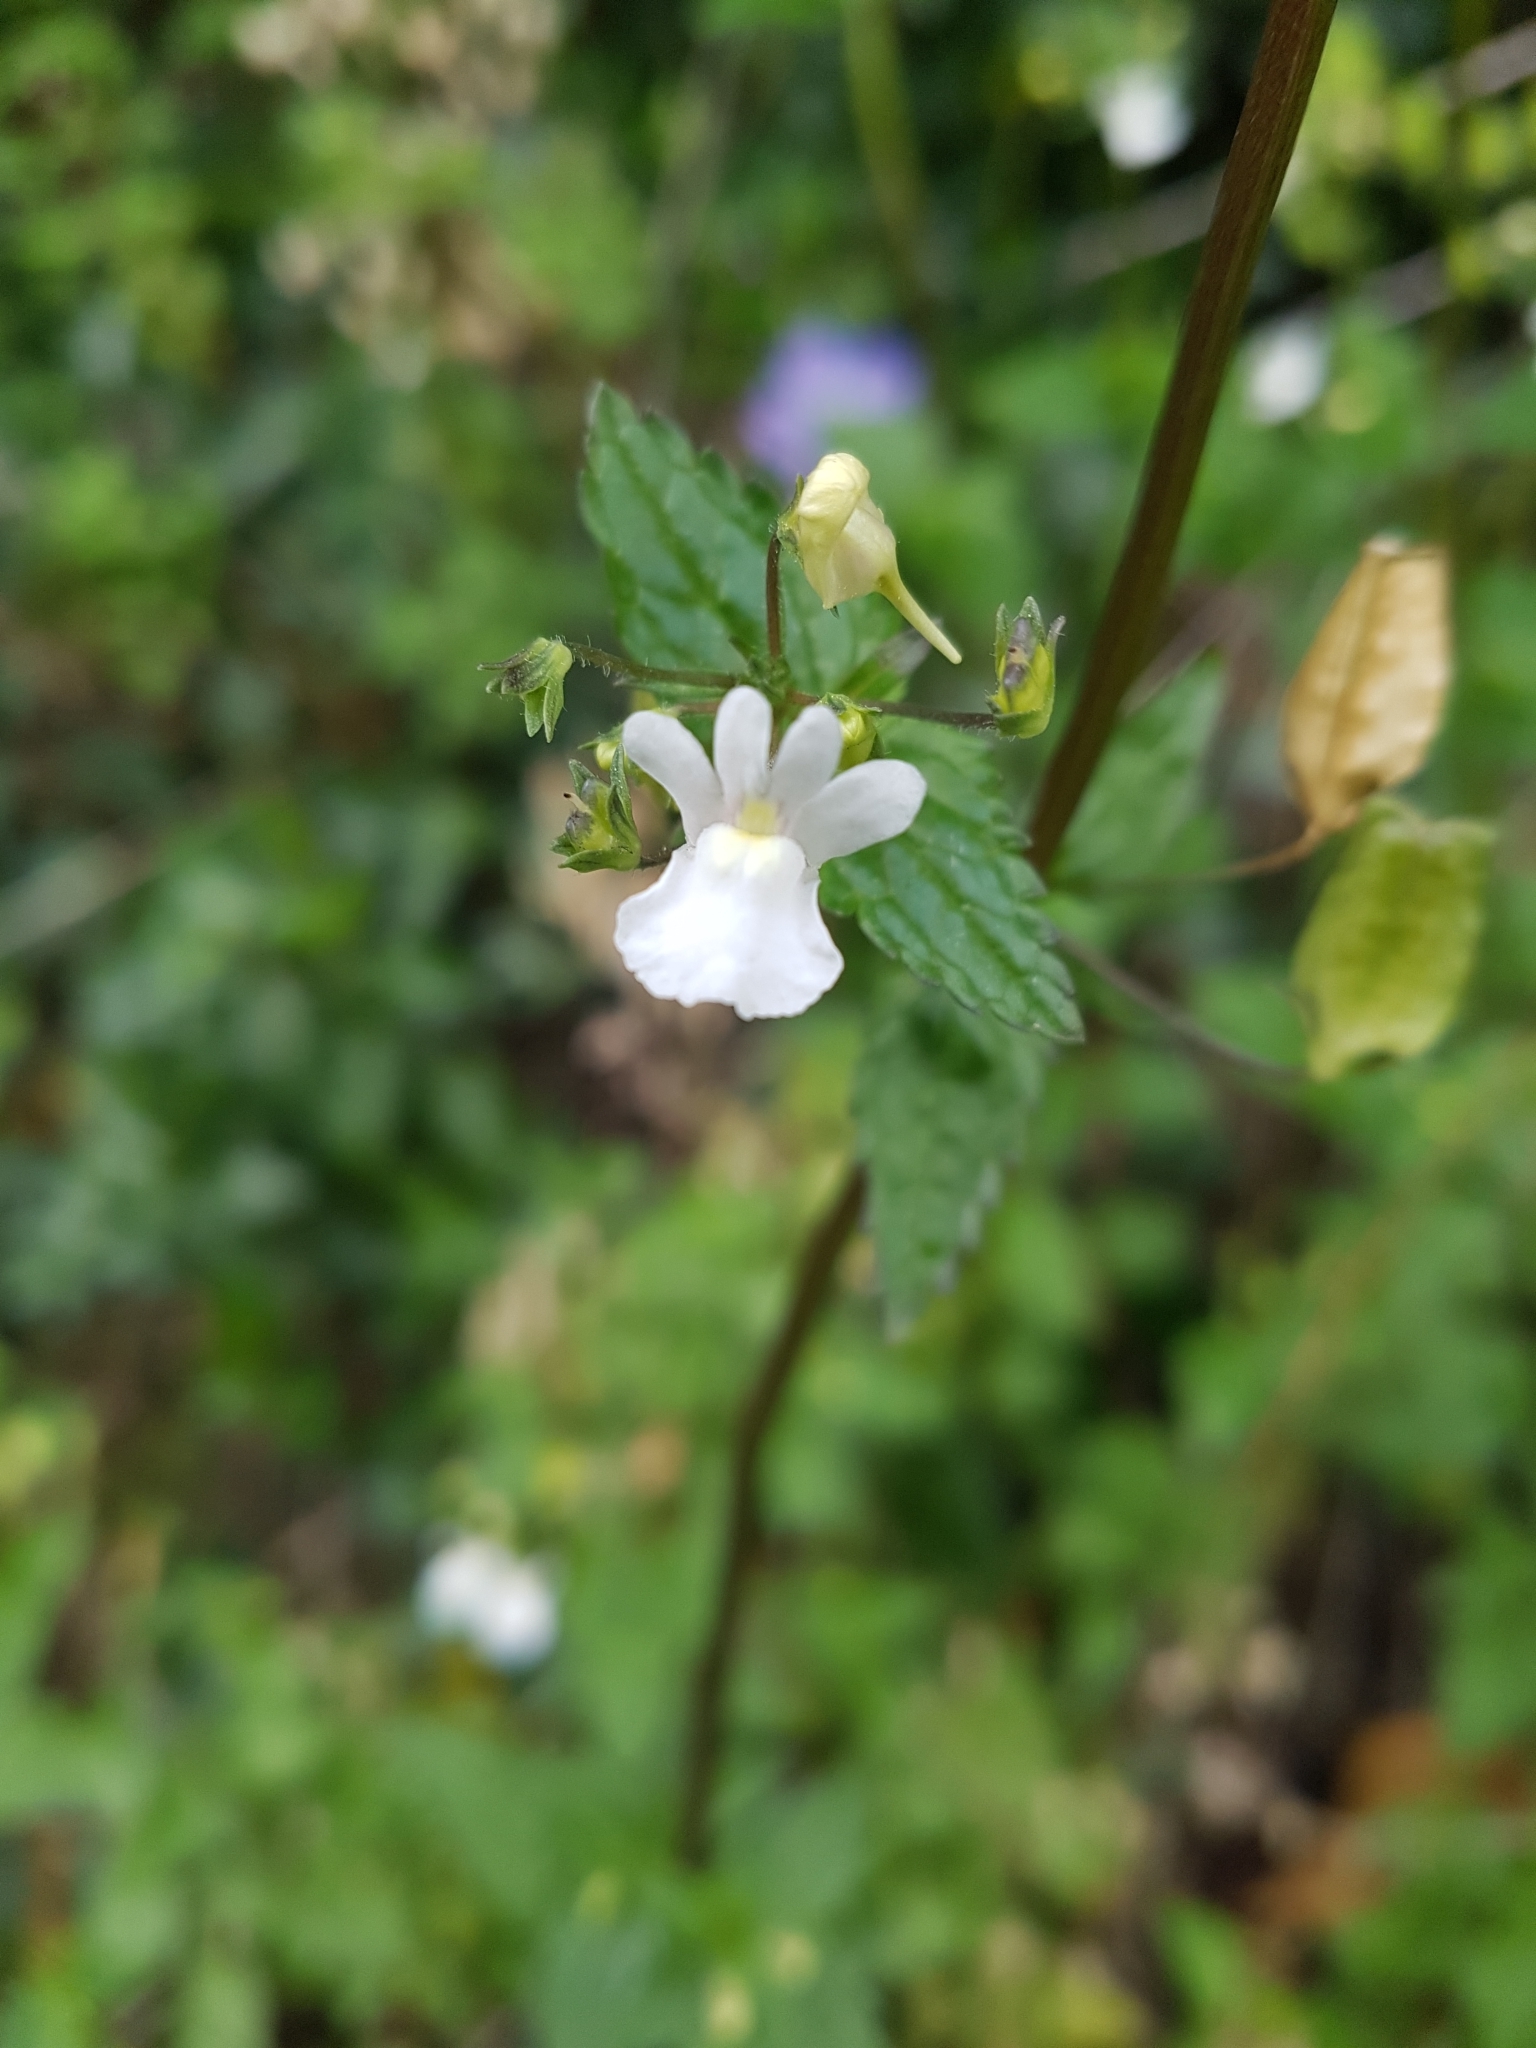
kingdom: Plantae
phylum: Tracheophyta
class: Magnoliopsida
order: Lamiales
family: Scrophulariaceae
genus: Nemesia
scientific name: Nemesia floribunda
